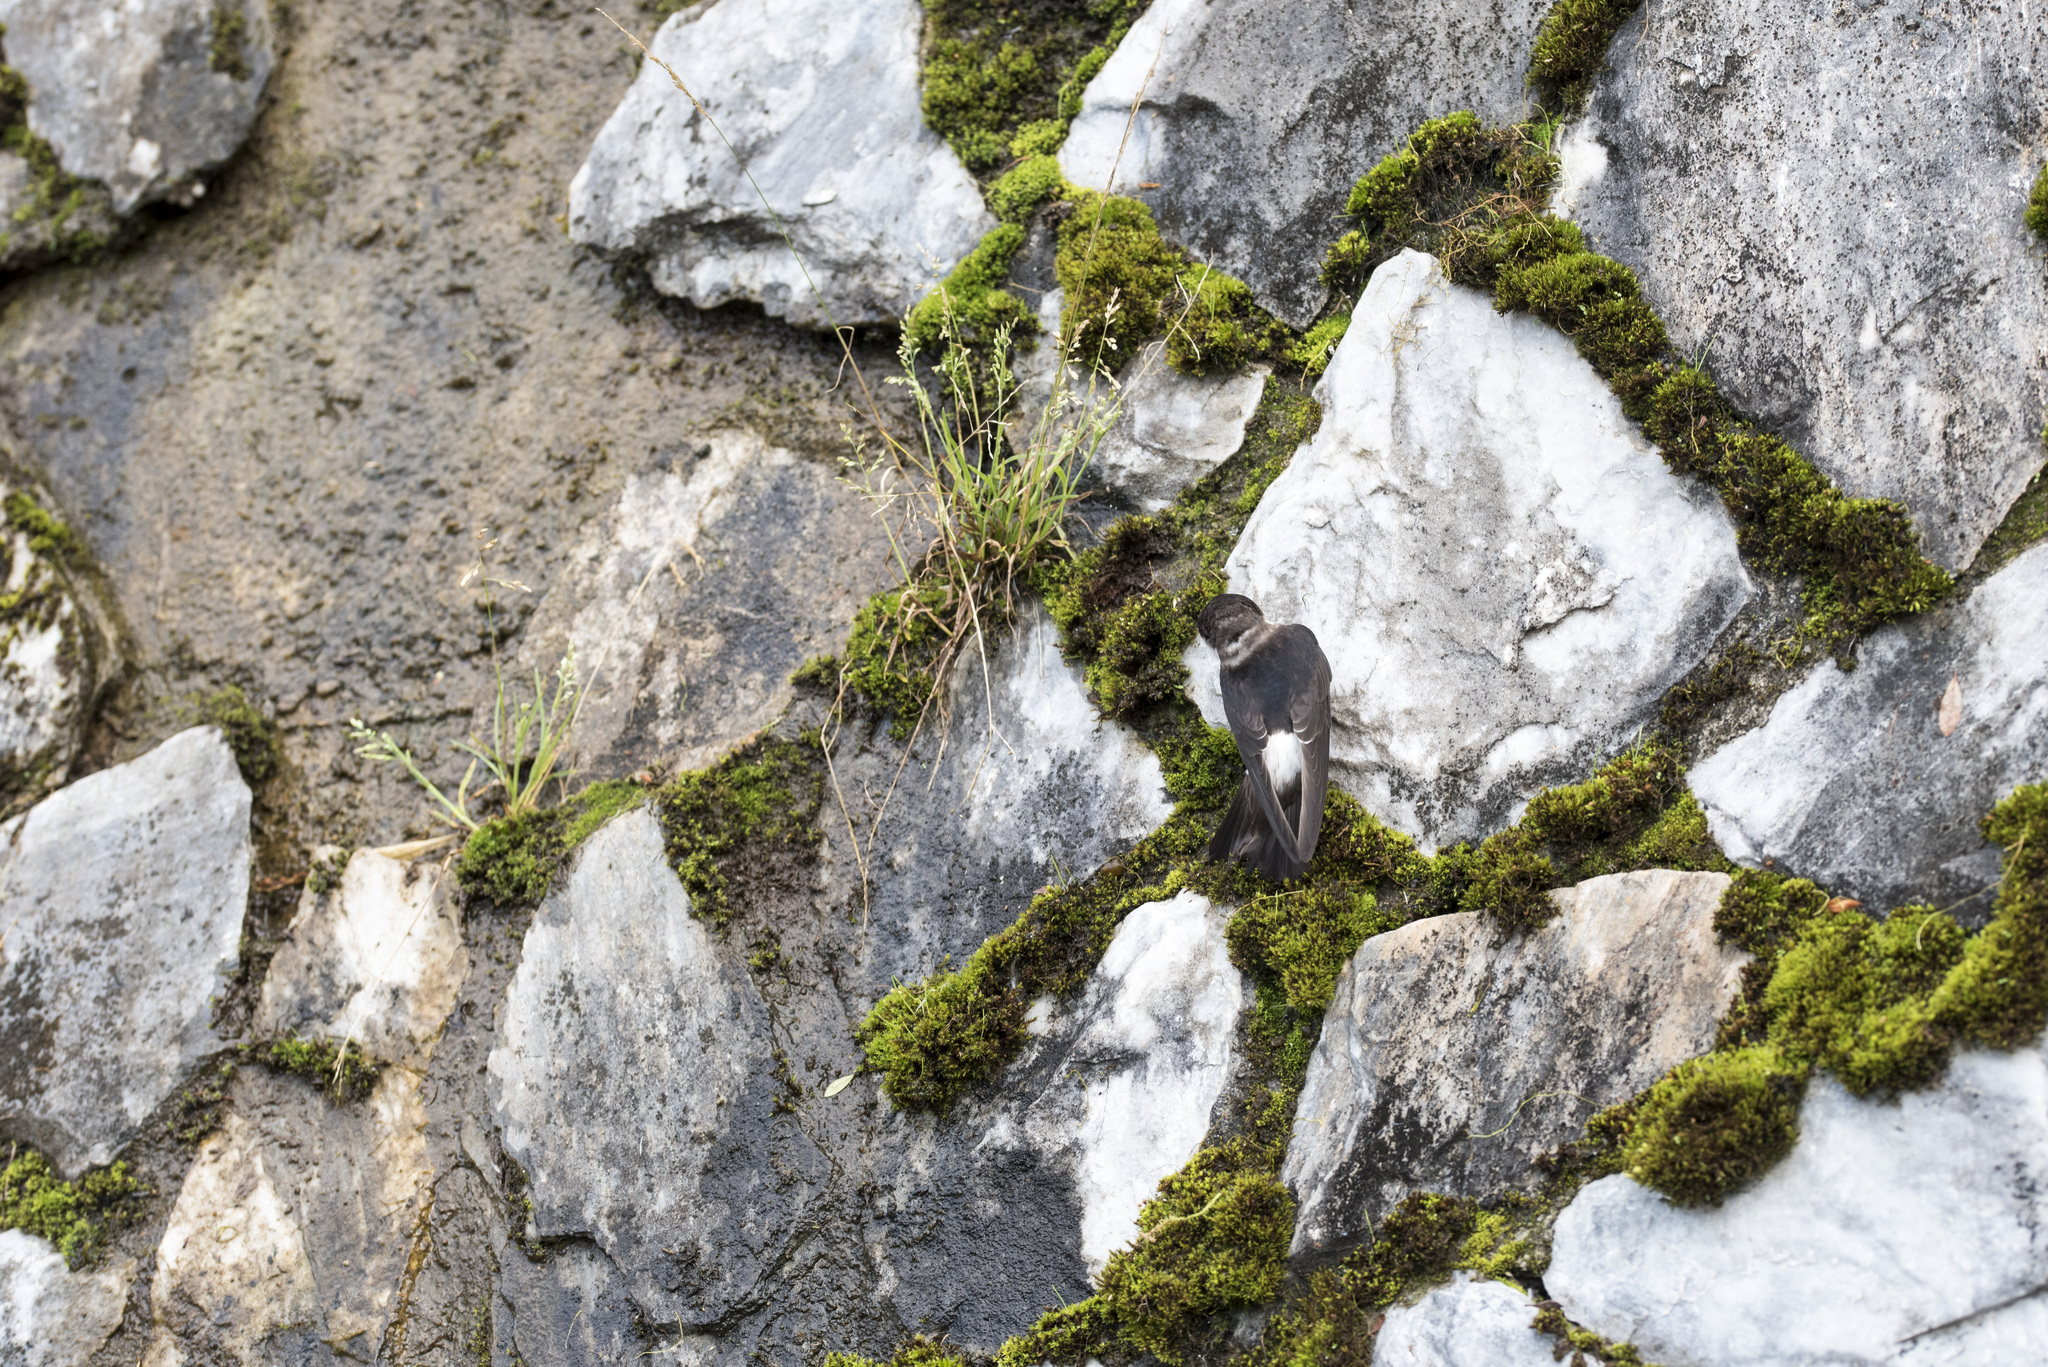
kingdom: Animalia
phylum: Chordata
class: Aves
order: Passeriformes
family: Hirundinidae
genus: Delichon
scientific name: Delichon dasypus
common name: Asian house martin
